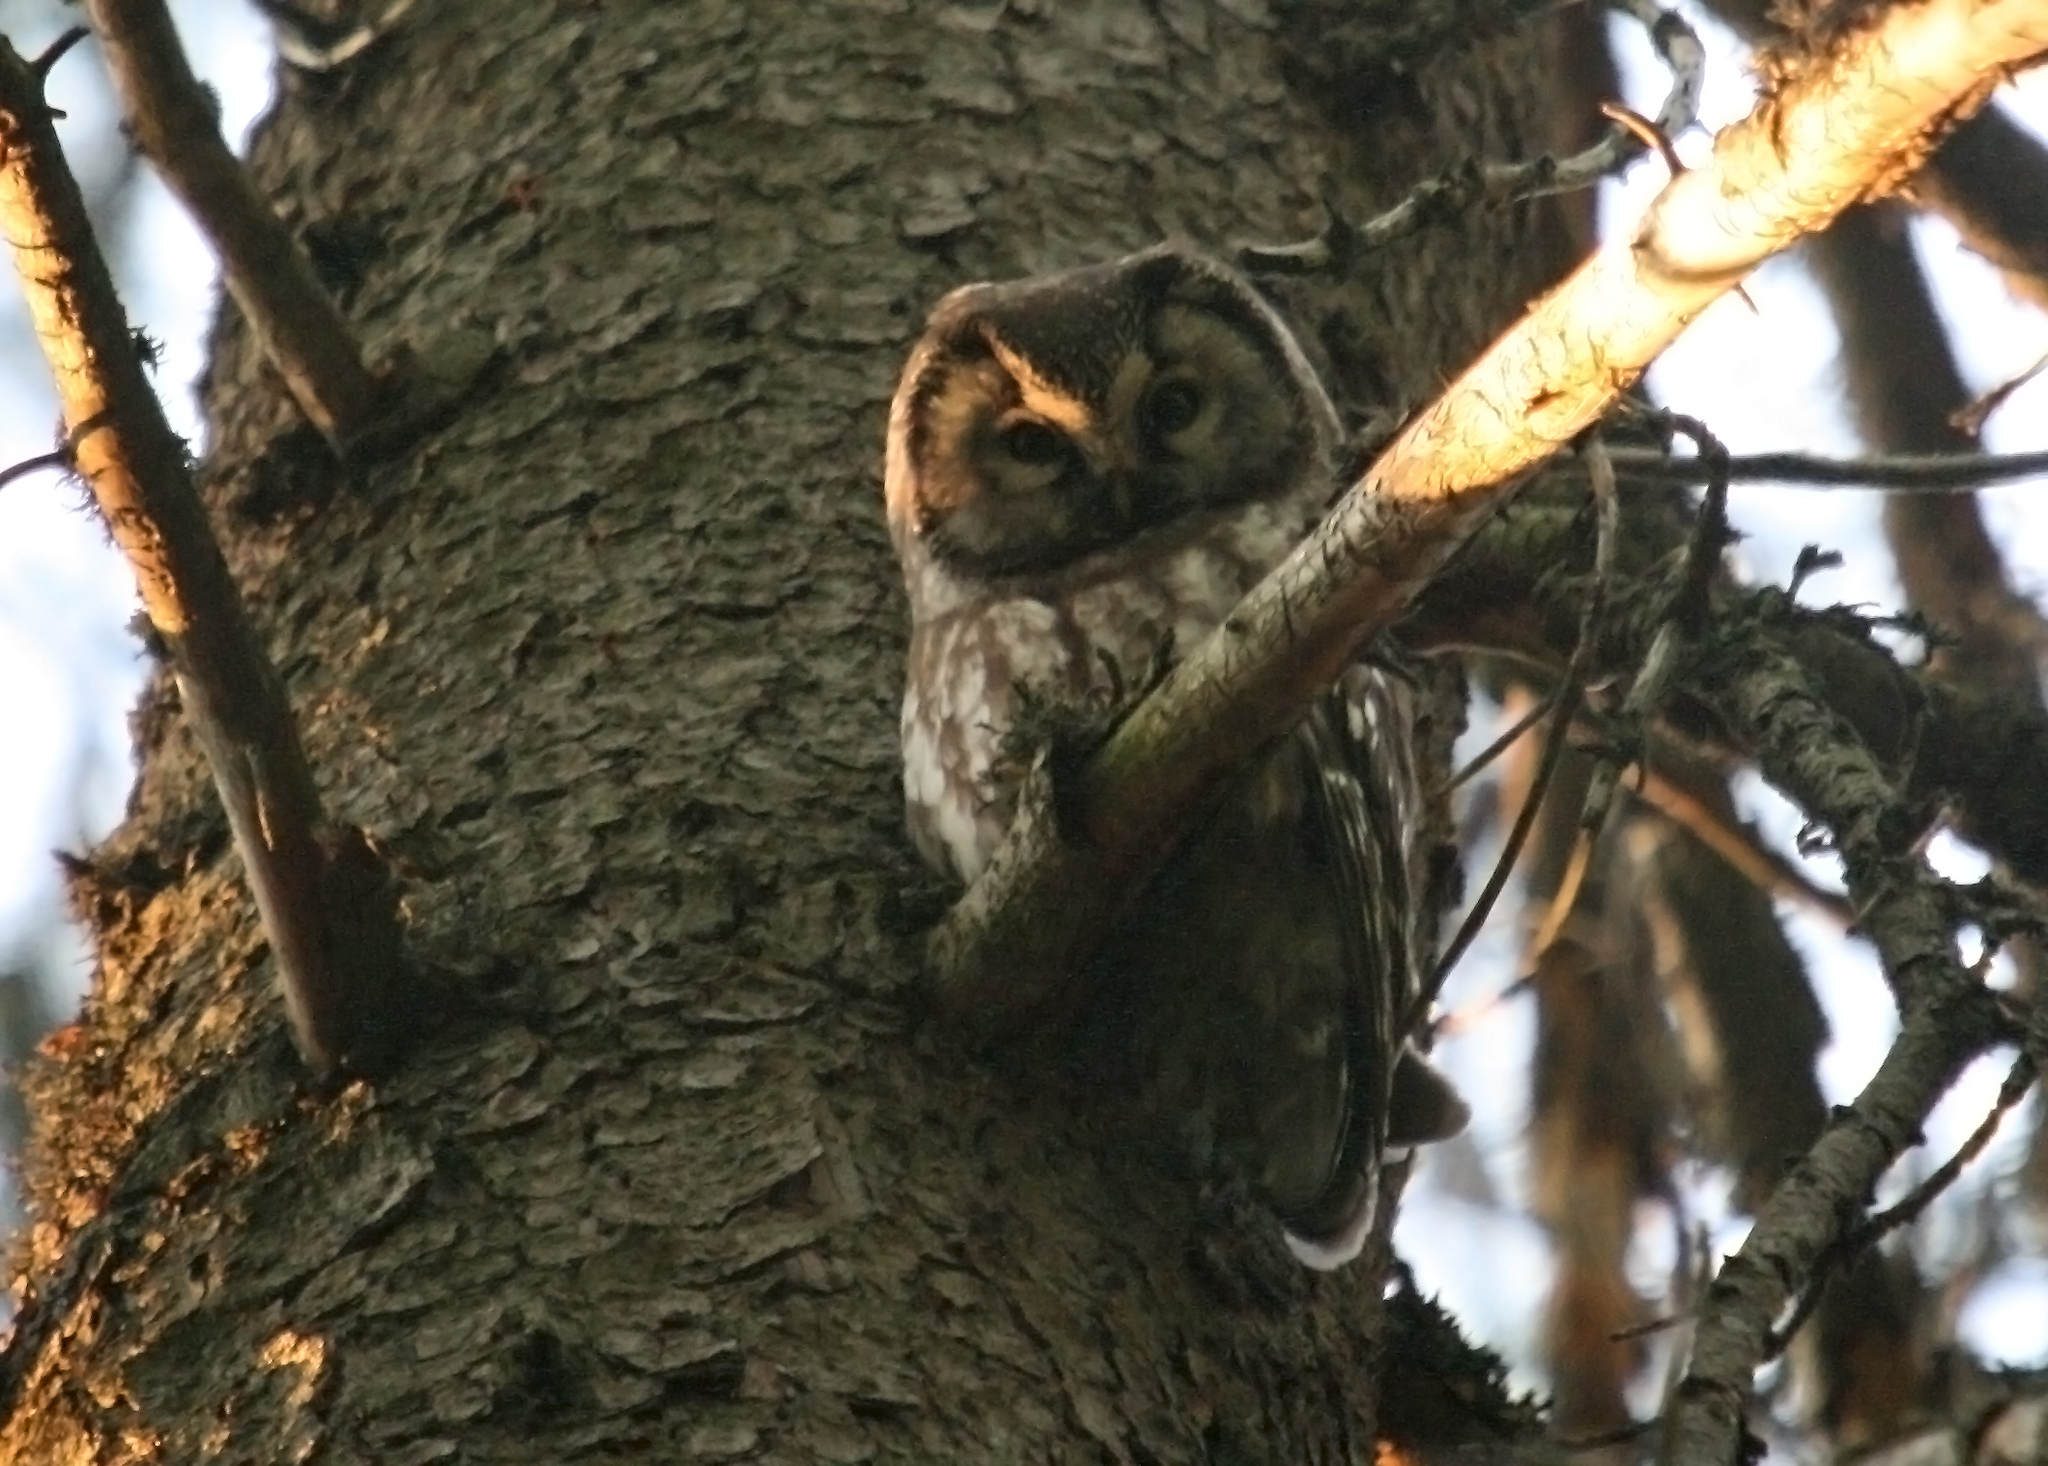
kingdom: Animalia
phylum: Chordata
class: Aves
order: Strigiformes
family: Strigidae
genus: Aegolius
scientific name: Aegolius funereus
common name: Boreal owl
